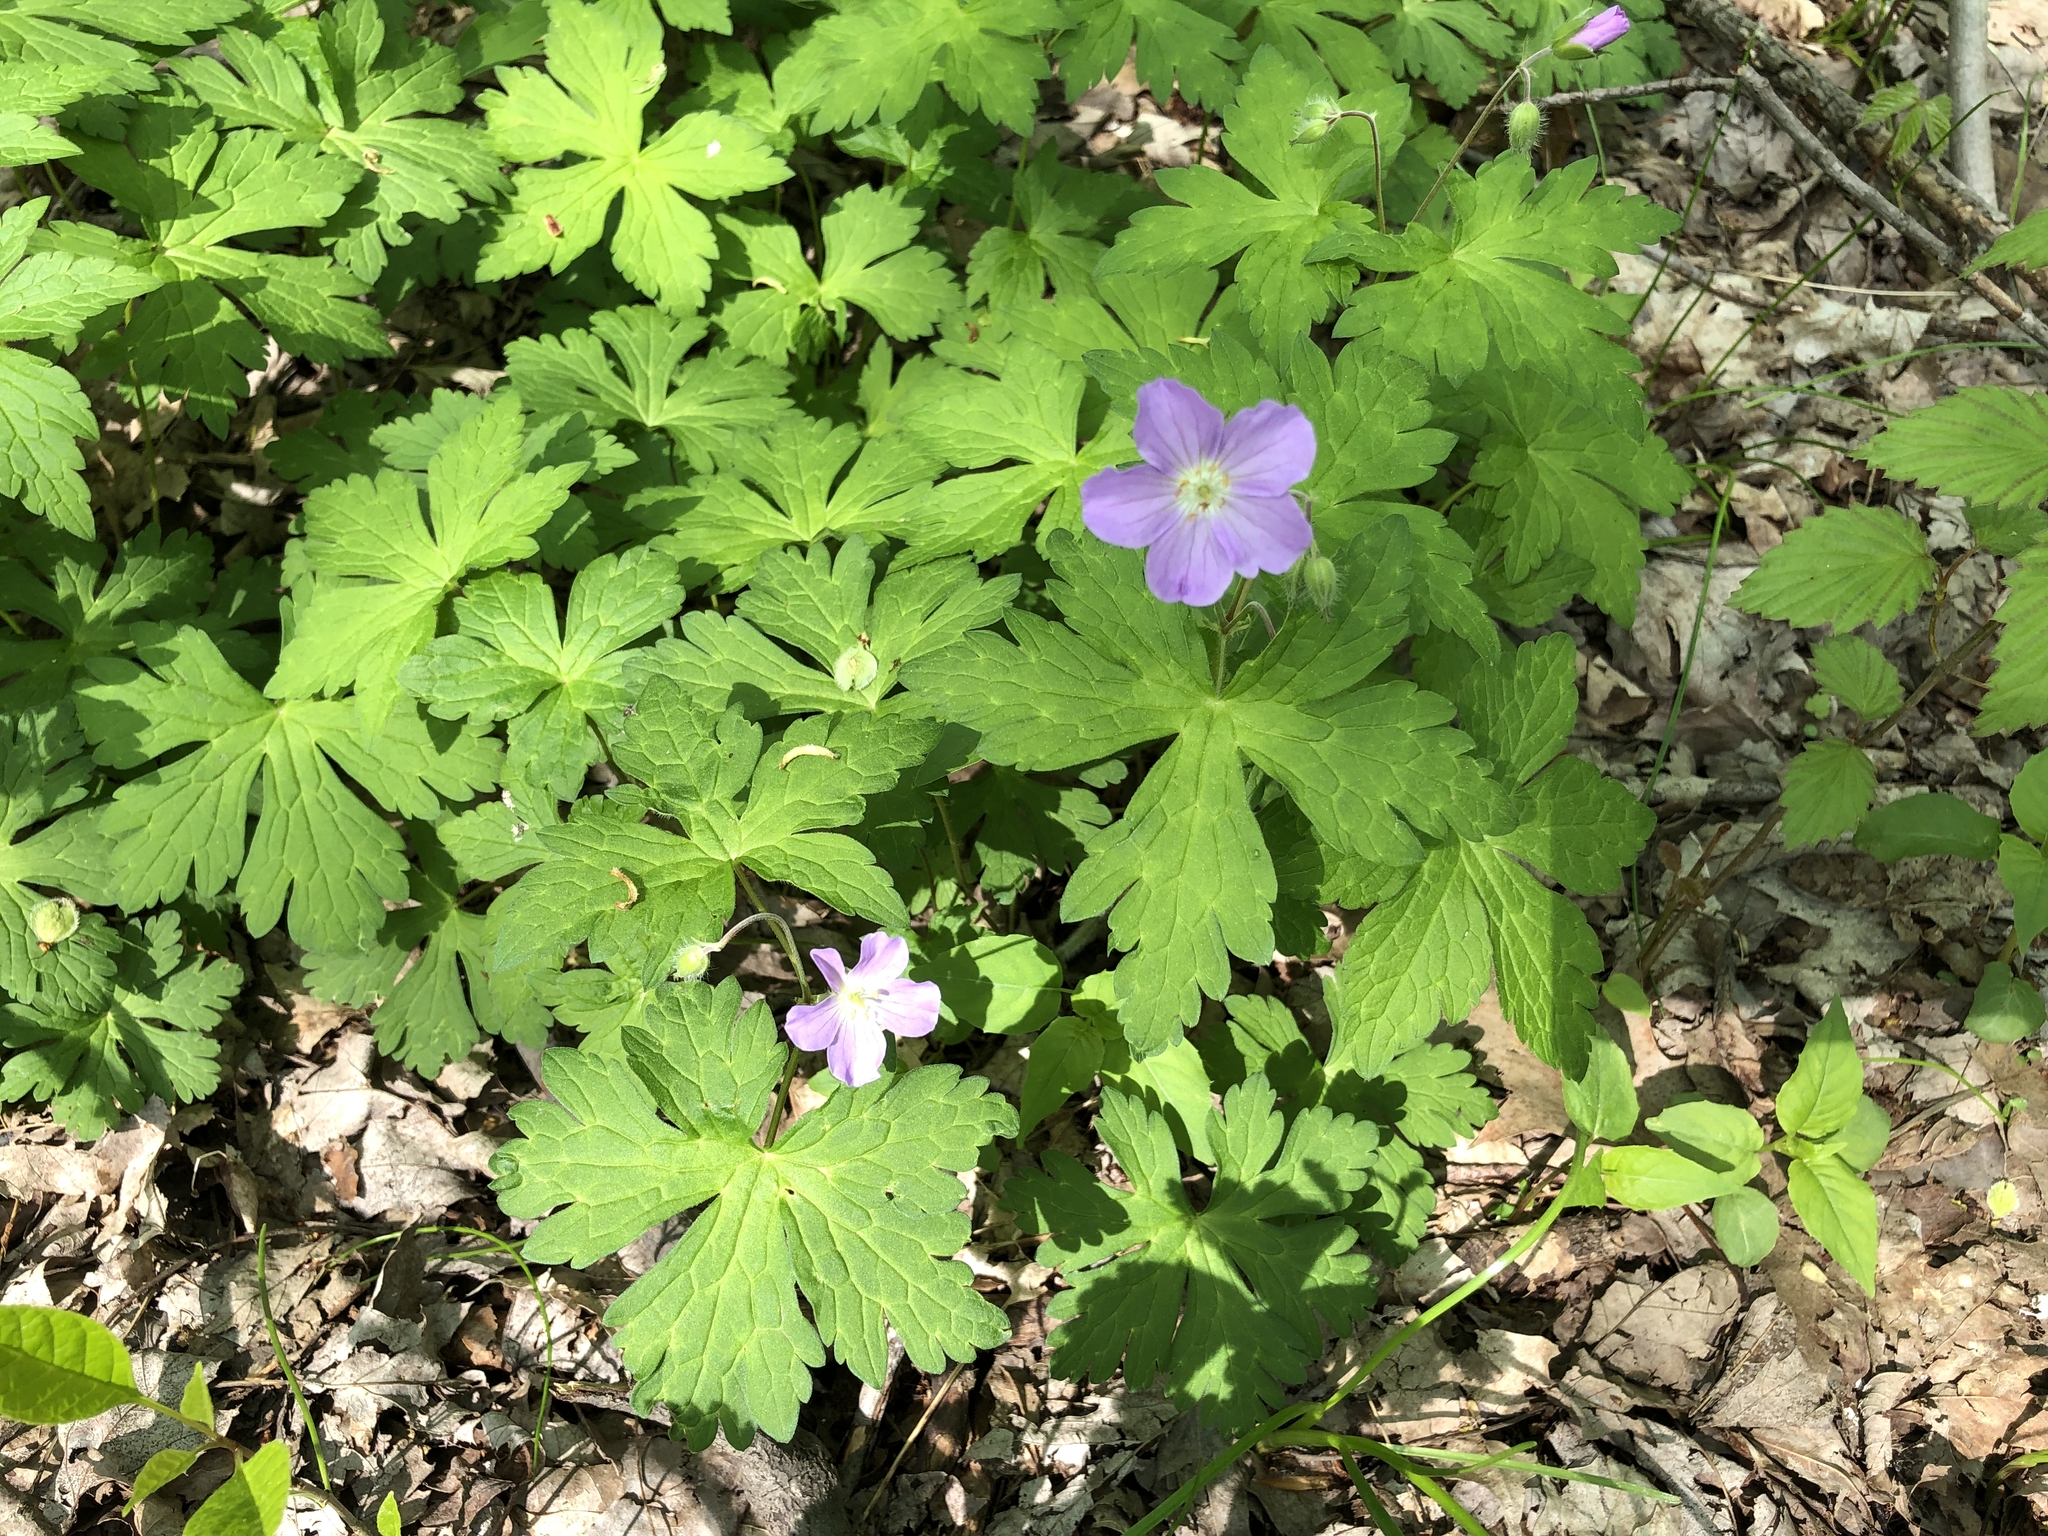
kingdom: Plantae
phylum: Tracheophyta
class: Magnoliopsida
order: Geraniales
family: Geraniaceae
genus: Geranium
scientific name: Geranium maculatum
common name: Spotted geranium
